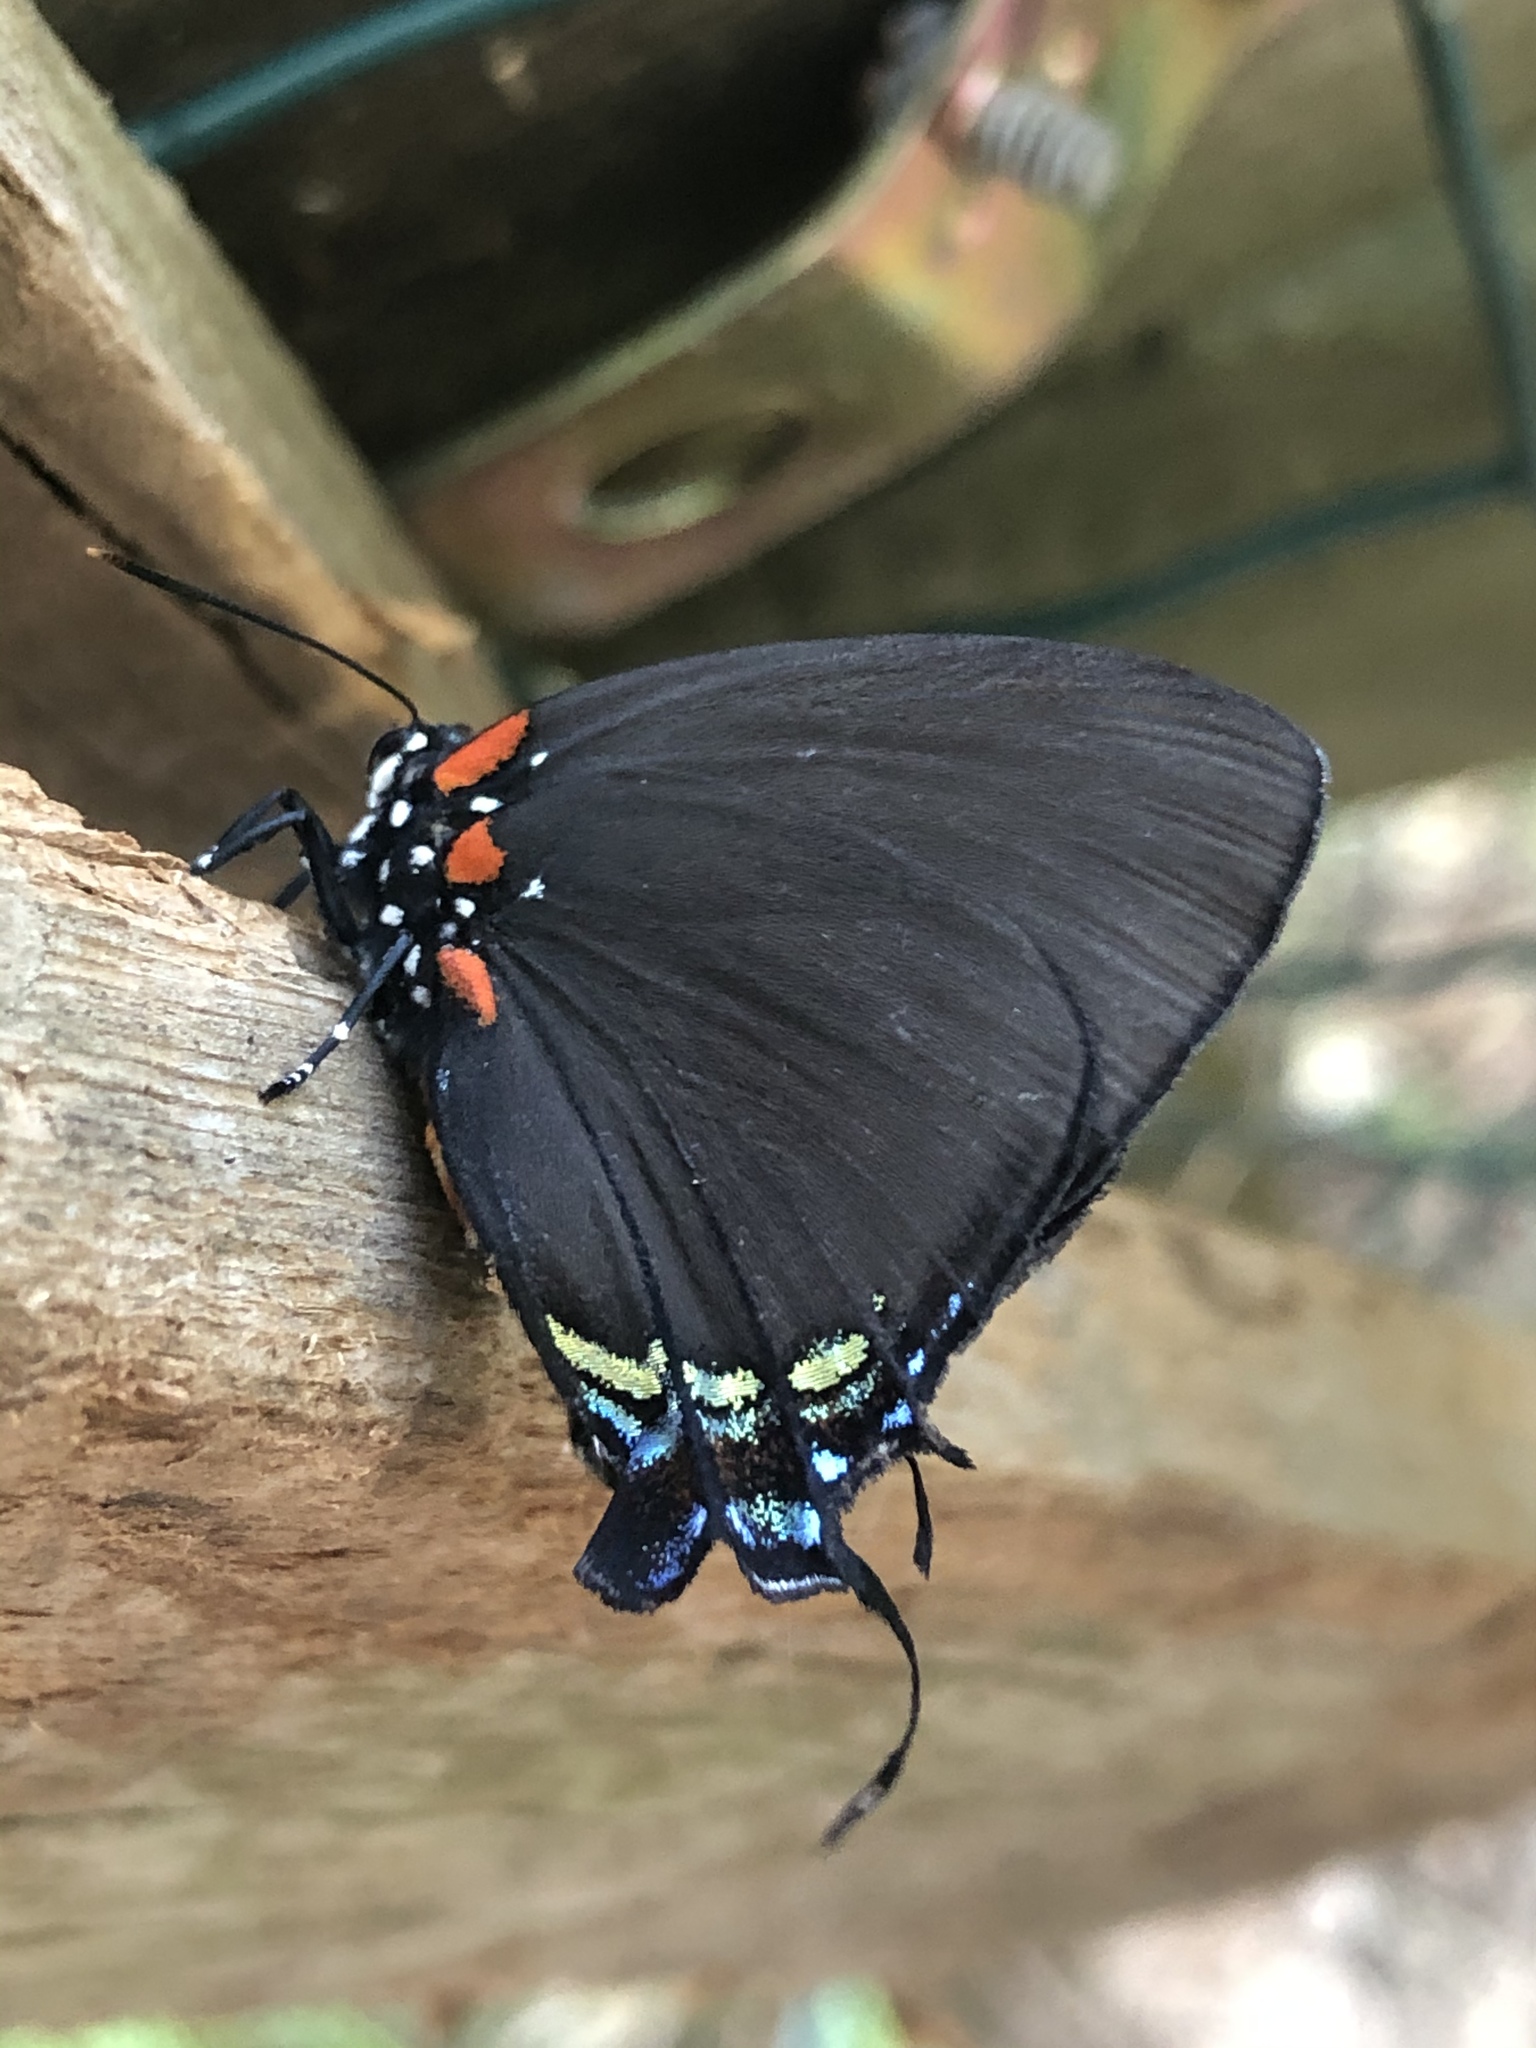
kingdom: Animalia
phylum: Arthropoda
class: Insecta
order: Lepidoptera
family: Lycaenidae
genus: Atlides
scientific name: Atlides halesus
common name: Great purple hairstreak
